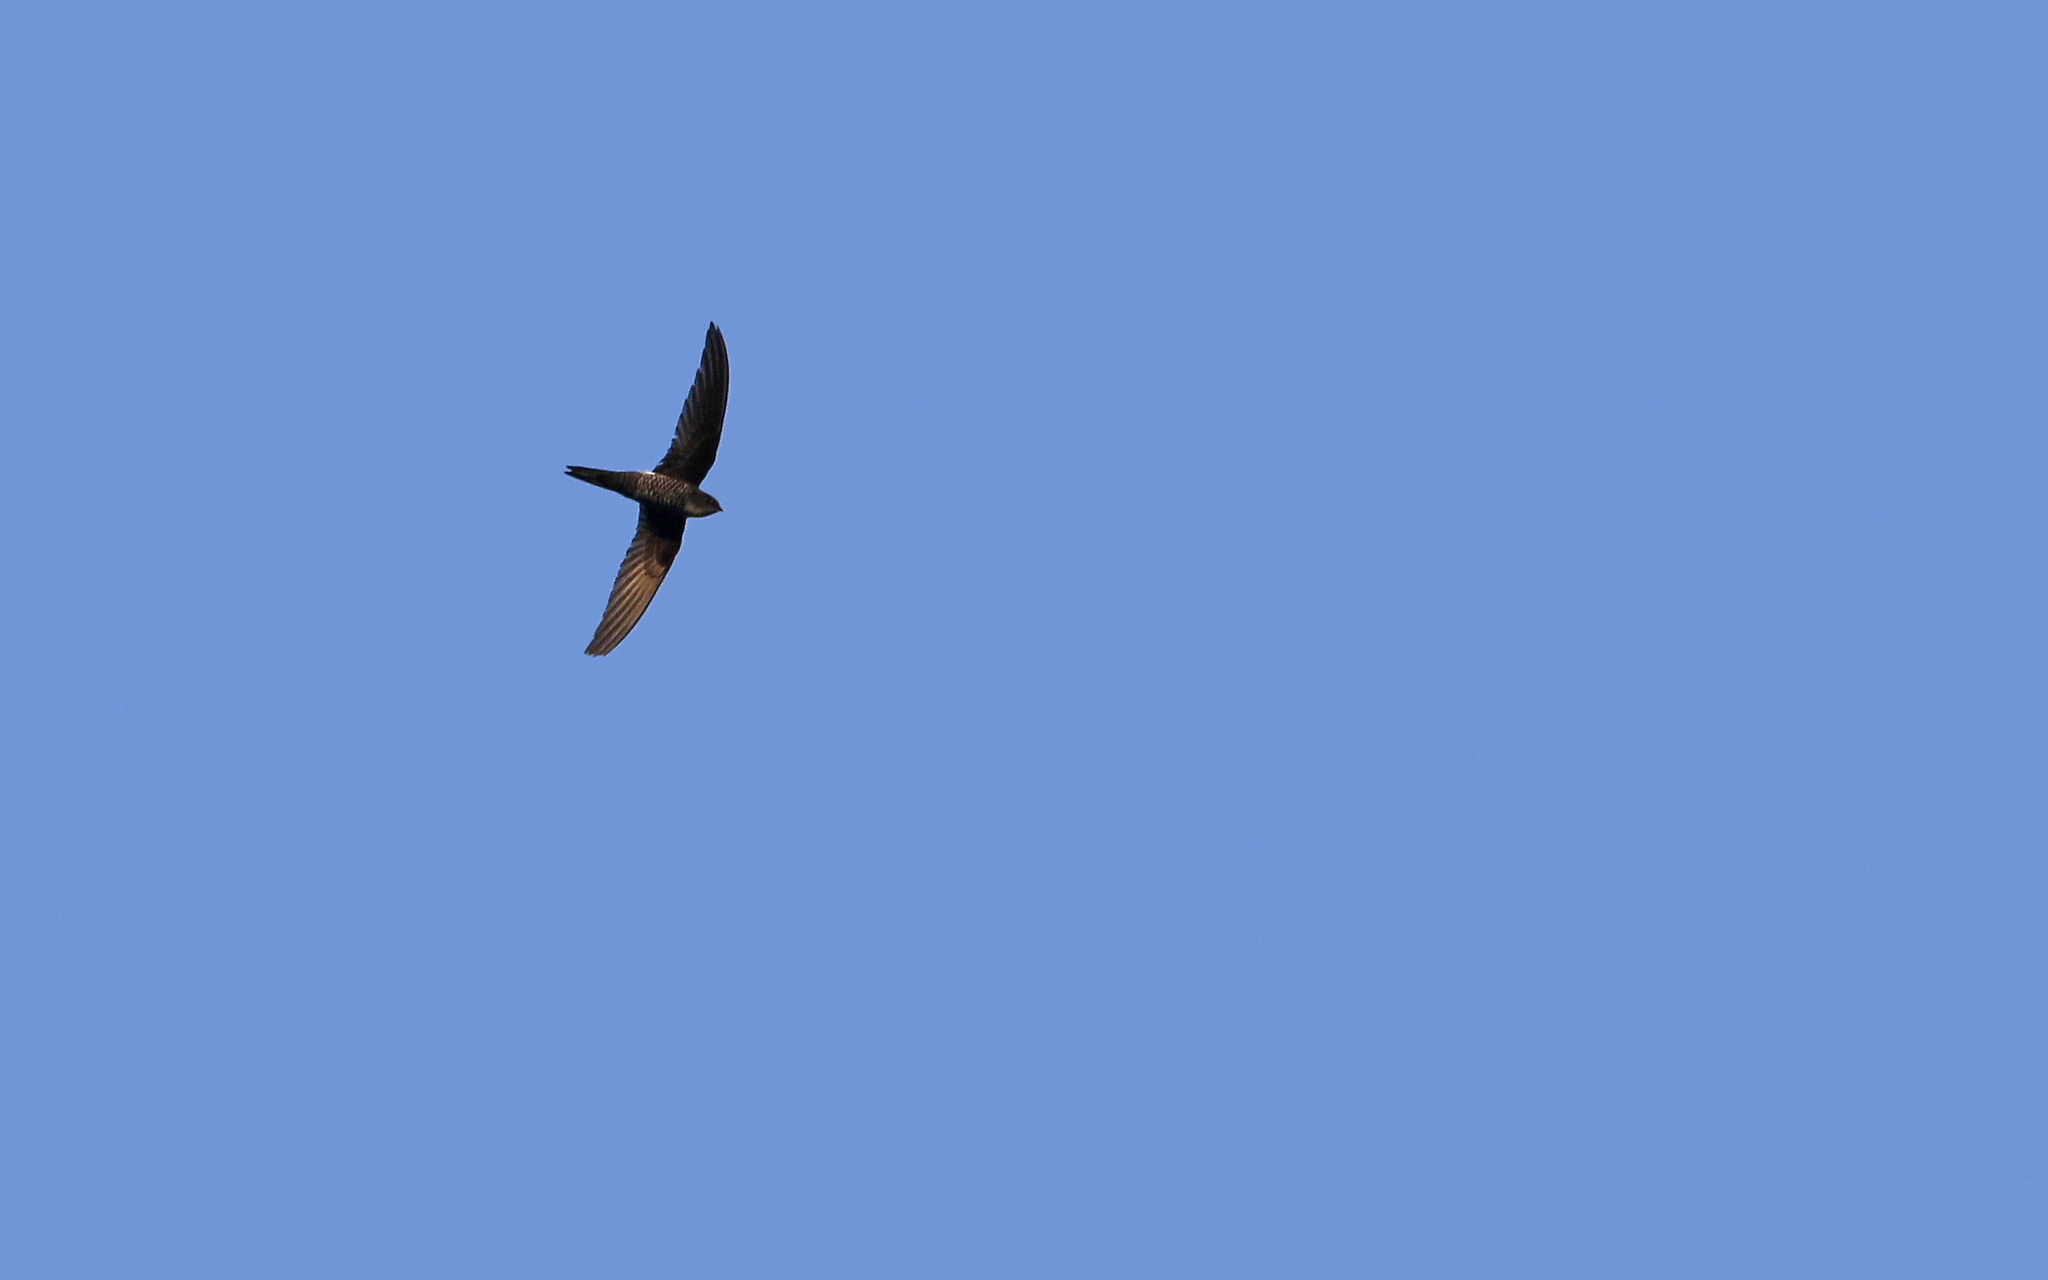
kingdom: Animalia
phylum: Chordata
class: Aves
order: Apodiformes
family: Apodidae
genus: Apus
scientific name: Apus pacificus
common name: Pacific swift
